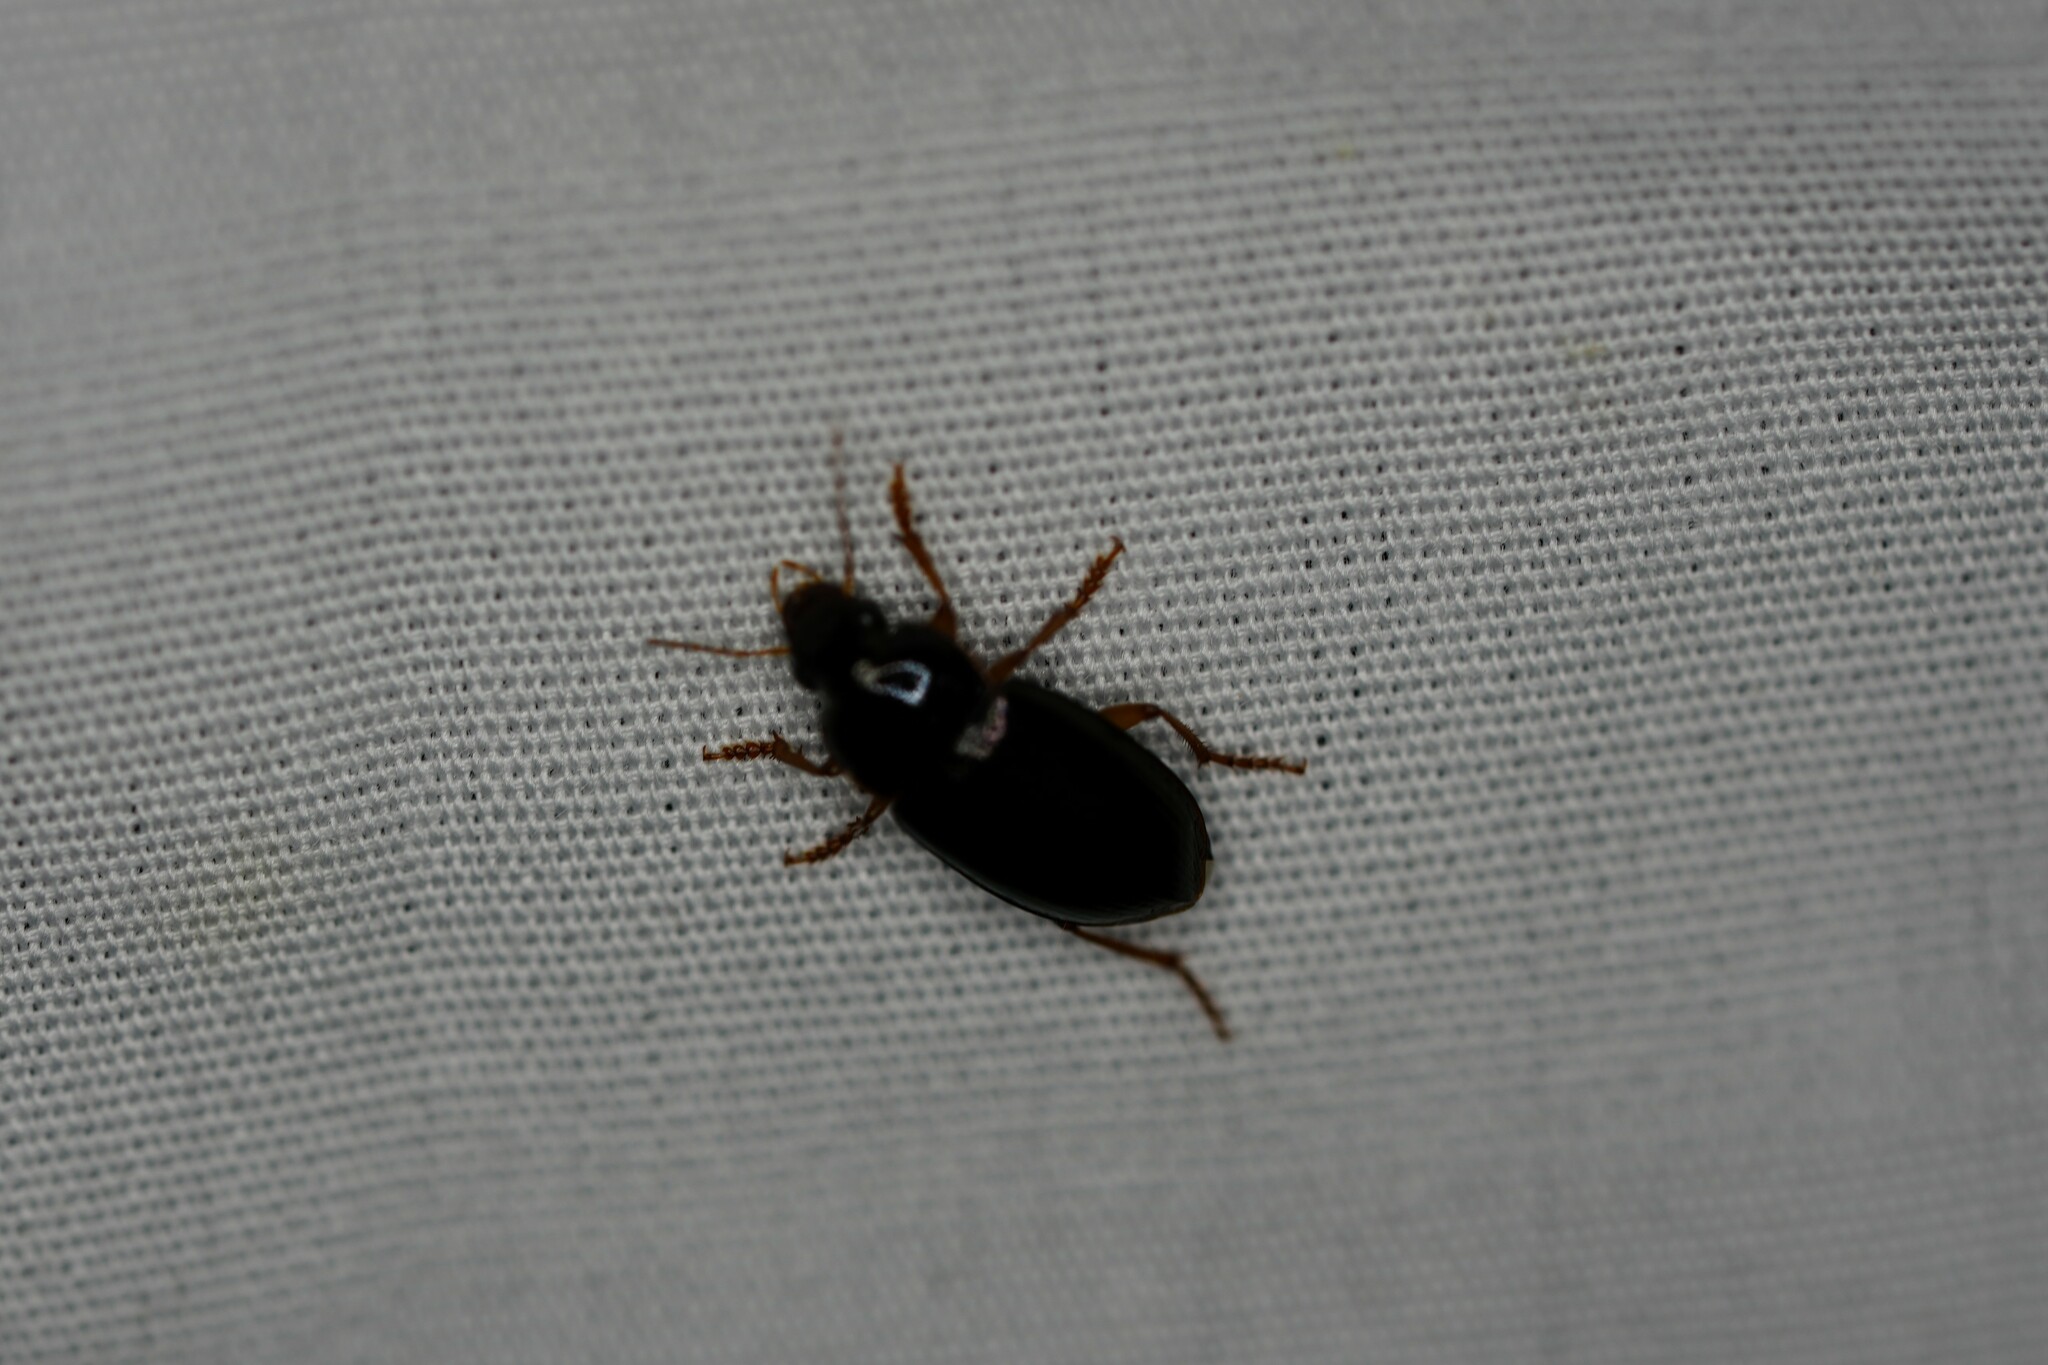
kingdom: Animalia
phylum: Arthropoda
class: Insecta
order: Coleoptera
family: Carabidae
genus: Notiobia
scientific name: Notiobia terminata
